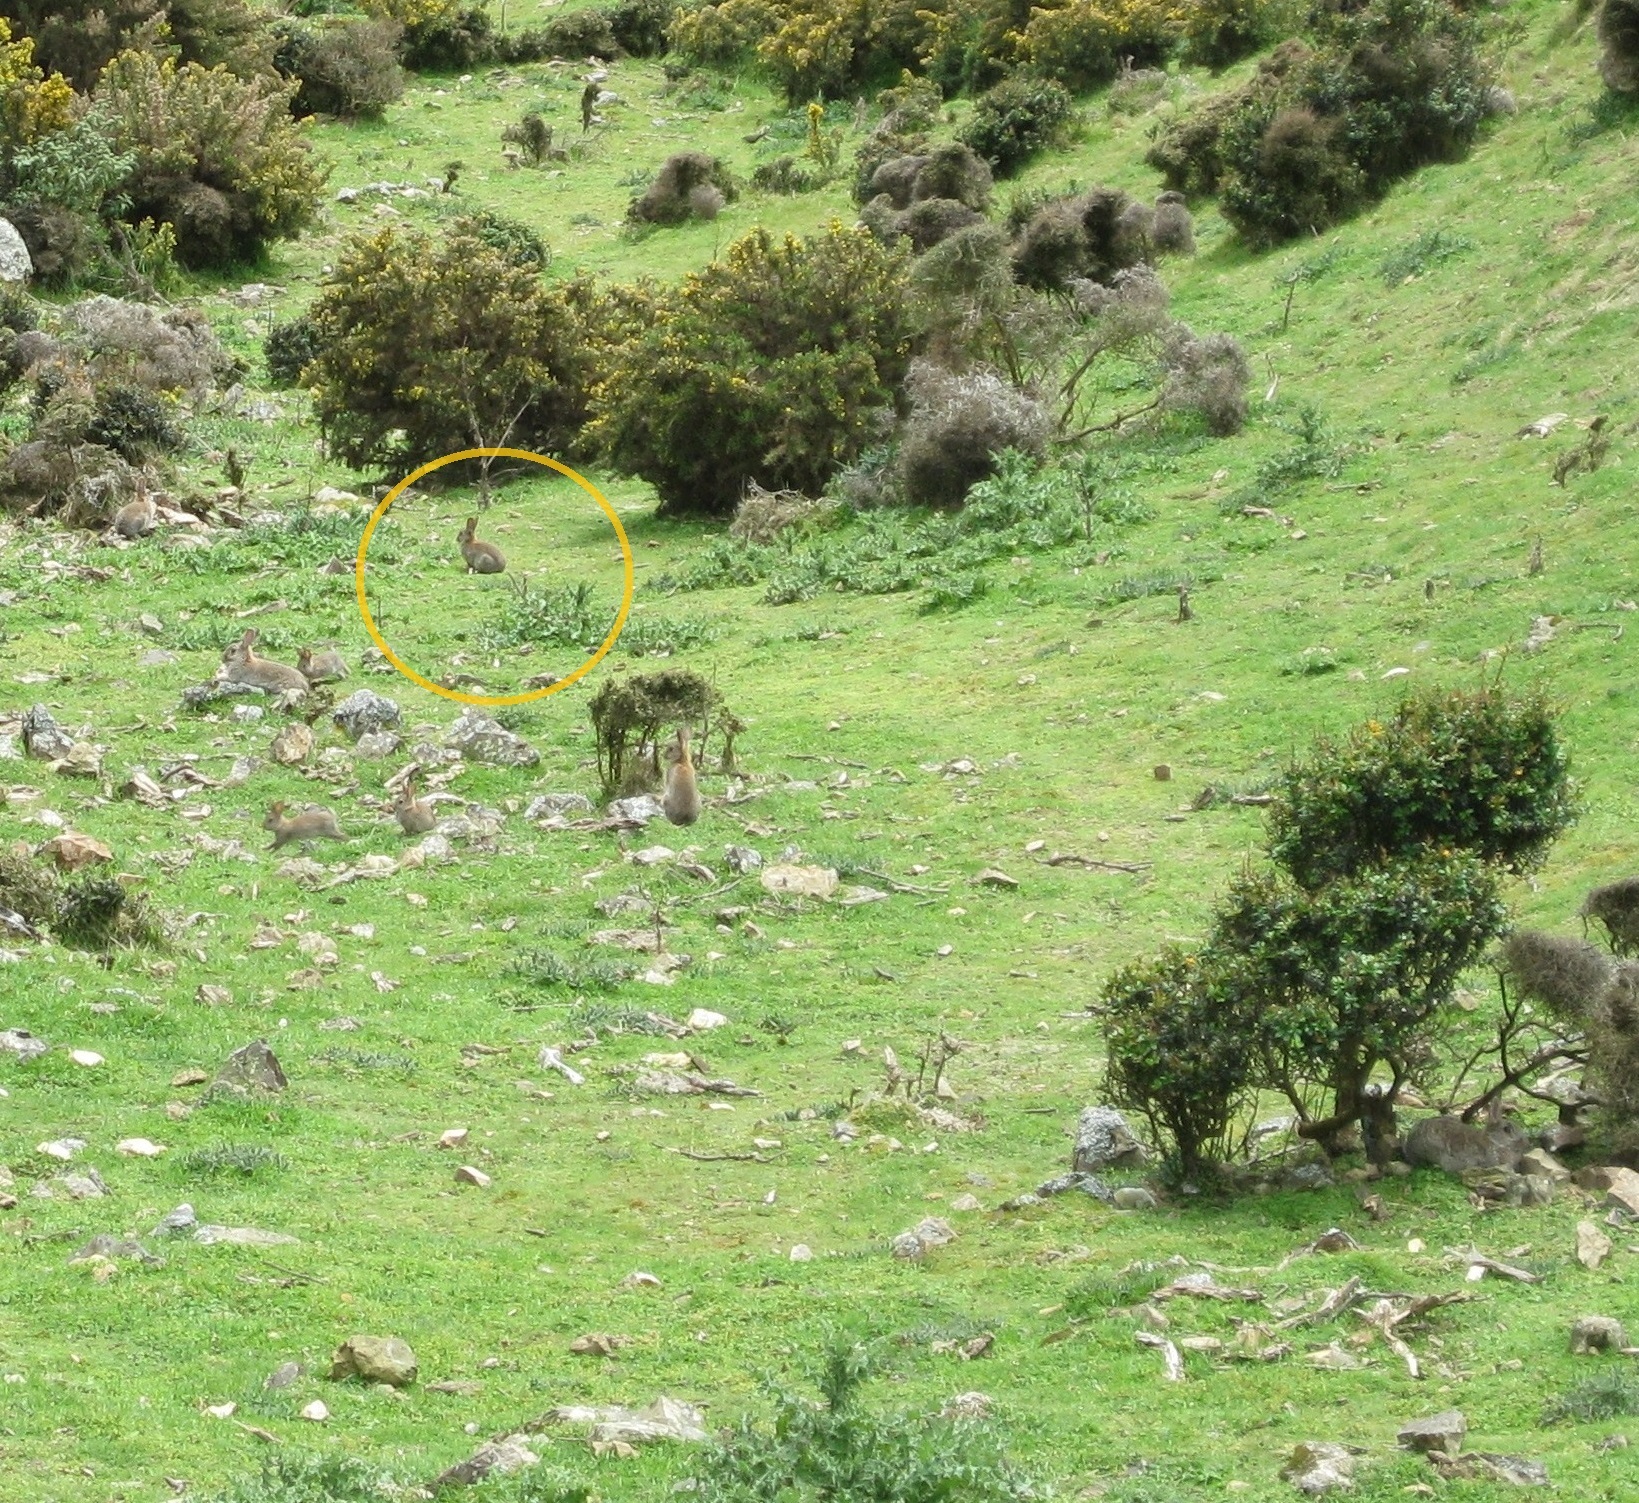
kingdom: Animalia
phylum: Chordata
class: Mammalia
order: Lagomorpha
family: Leporidae
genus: Oryctolagus
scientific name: Oryctolagus cuniculus
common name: European rabbit
